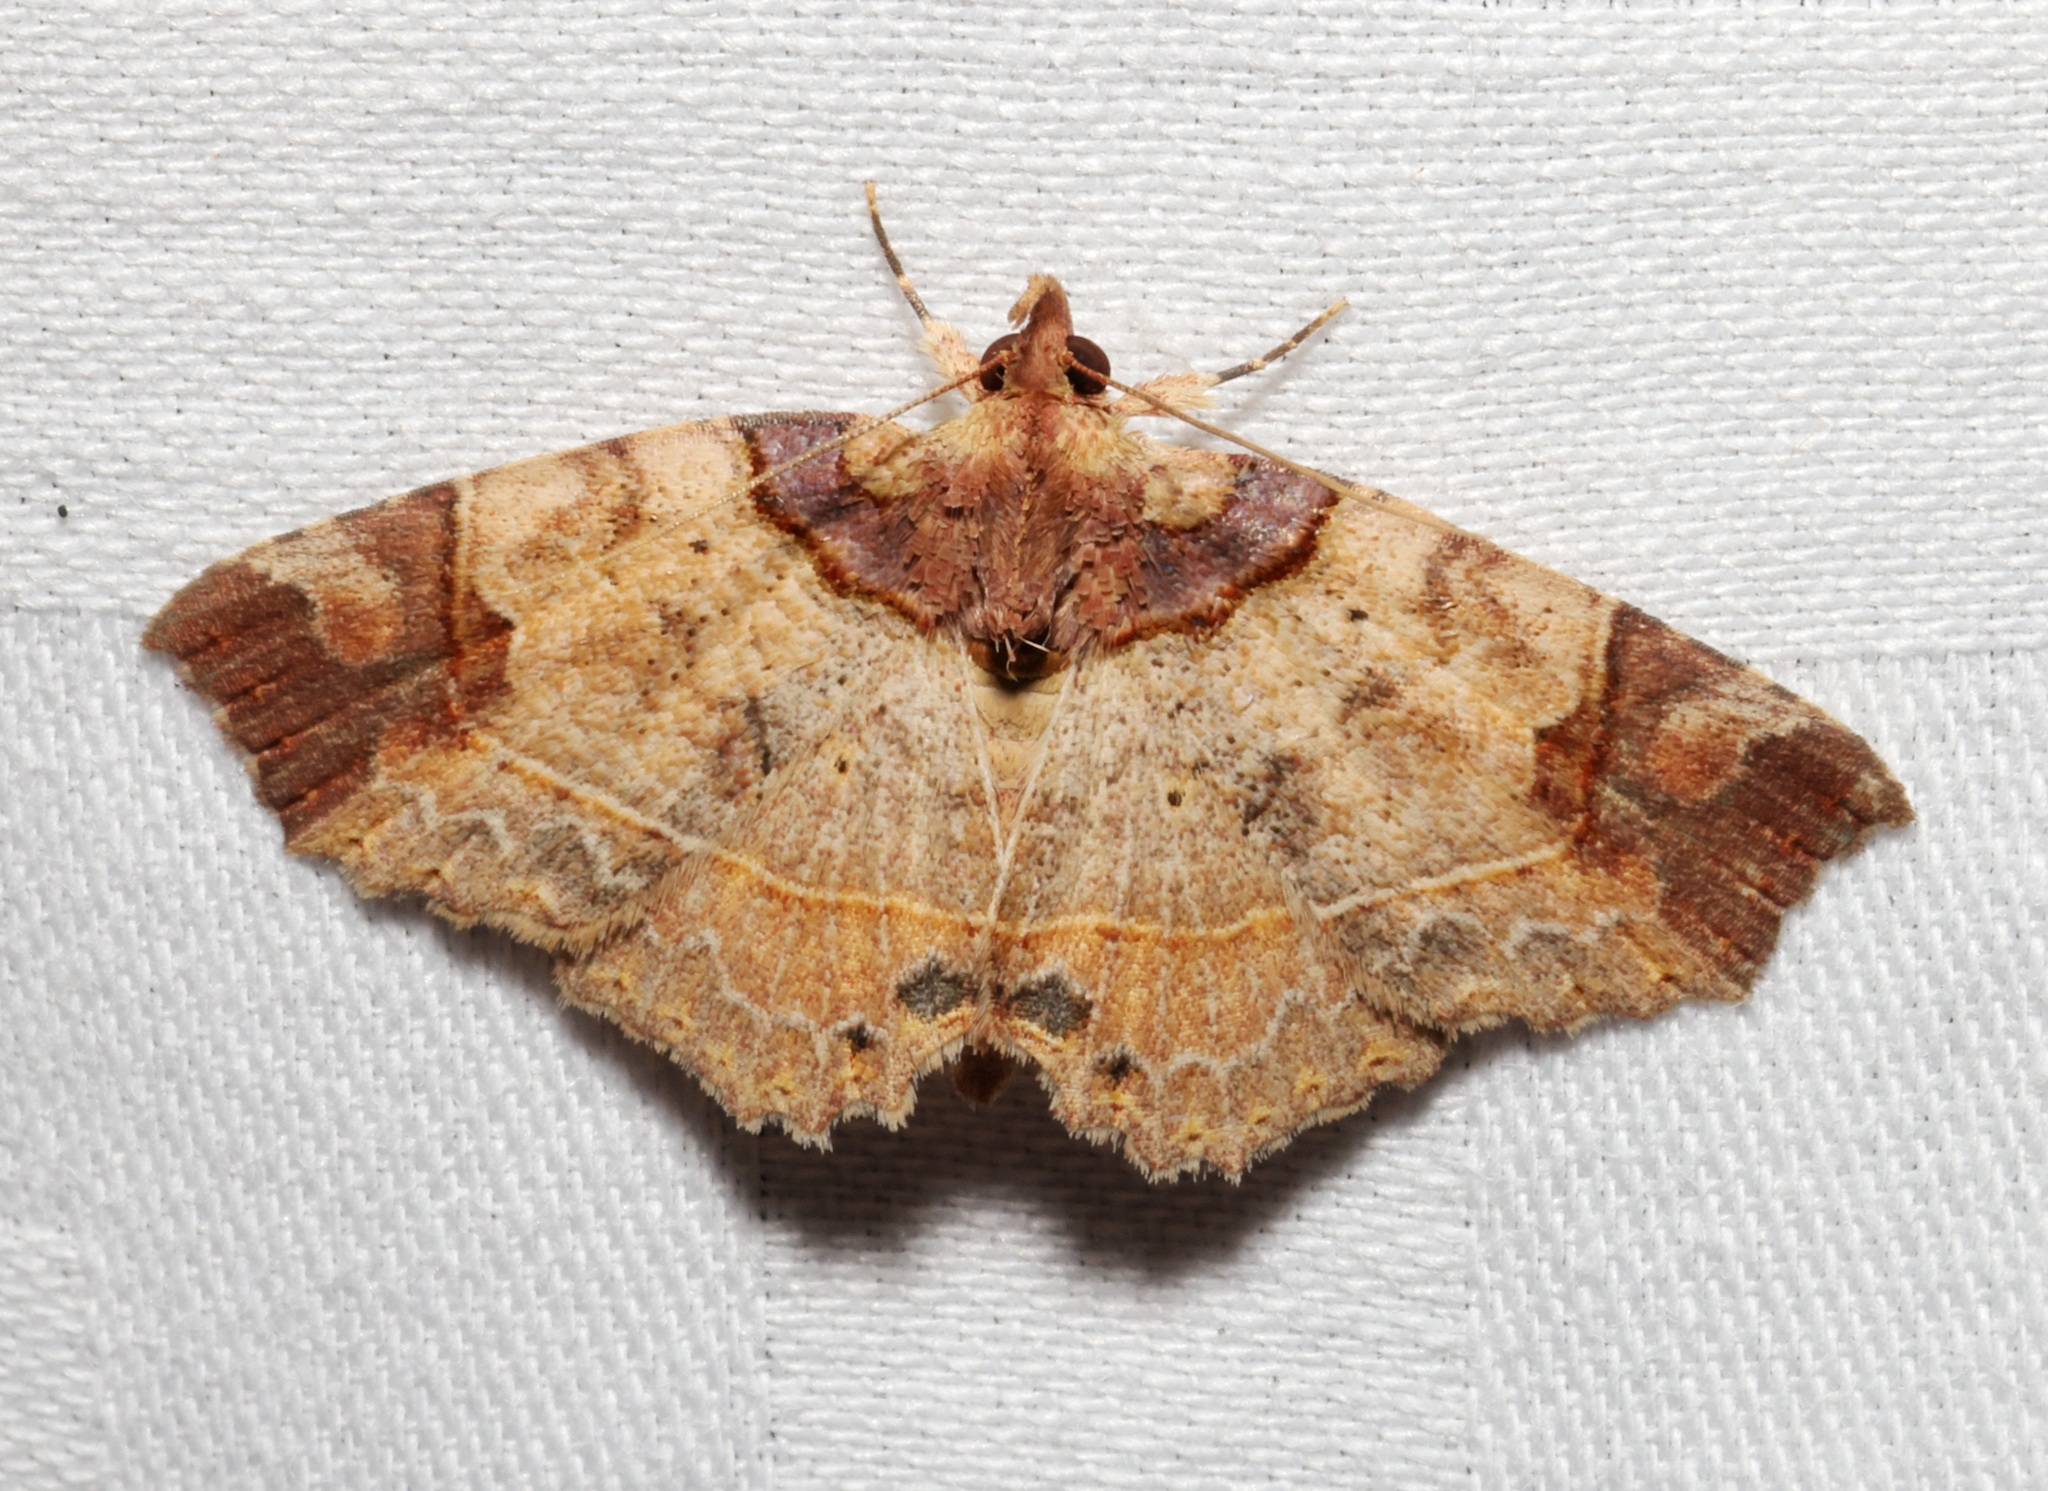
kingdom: Animalia
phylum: Arthropoda
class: Insecta
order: Lepidoptera
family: Erebidae
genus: Tamba
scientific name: Tamba apicata
